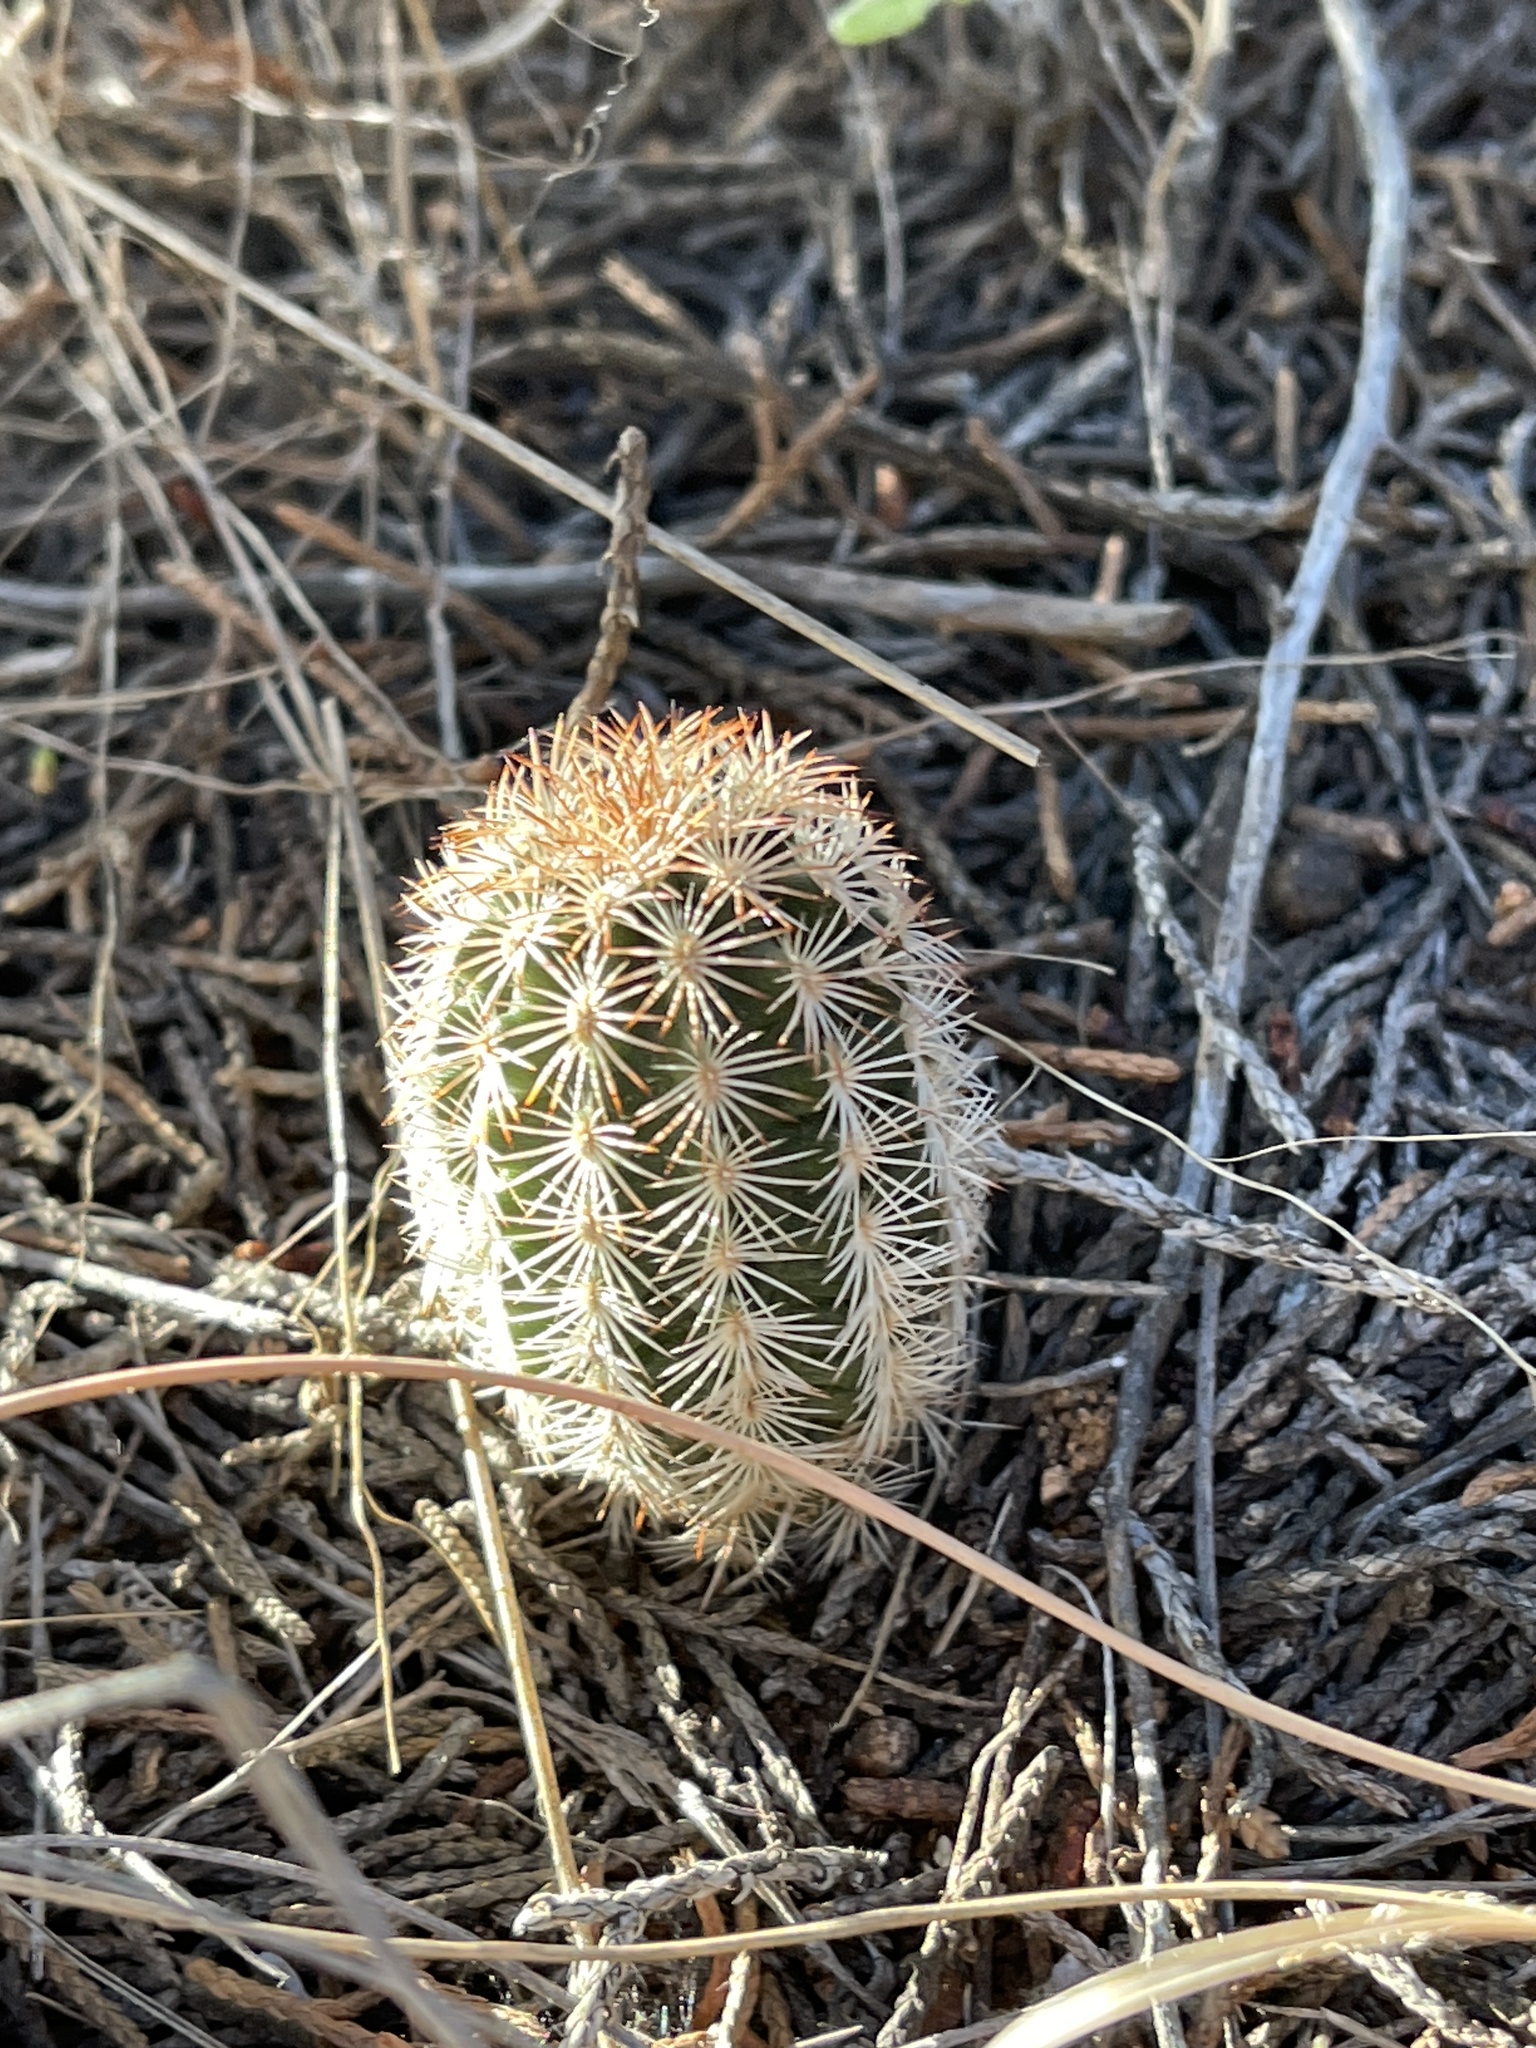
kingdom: Plantae
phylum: Tracheophyta
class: Magnoliopsida
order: Caryophyllales
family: Cactaceae
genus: Echinocereus
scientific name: Echinocereus reichenbachii
